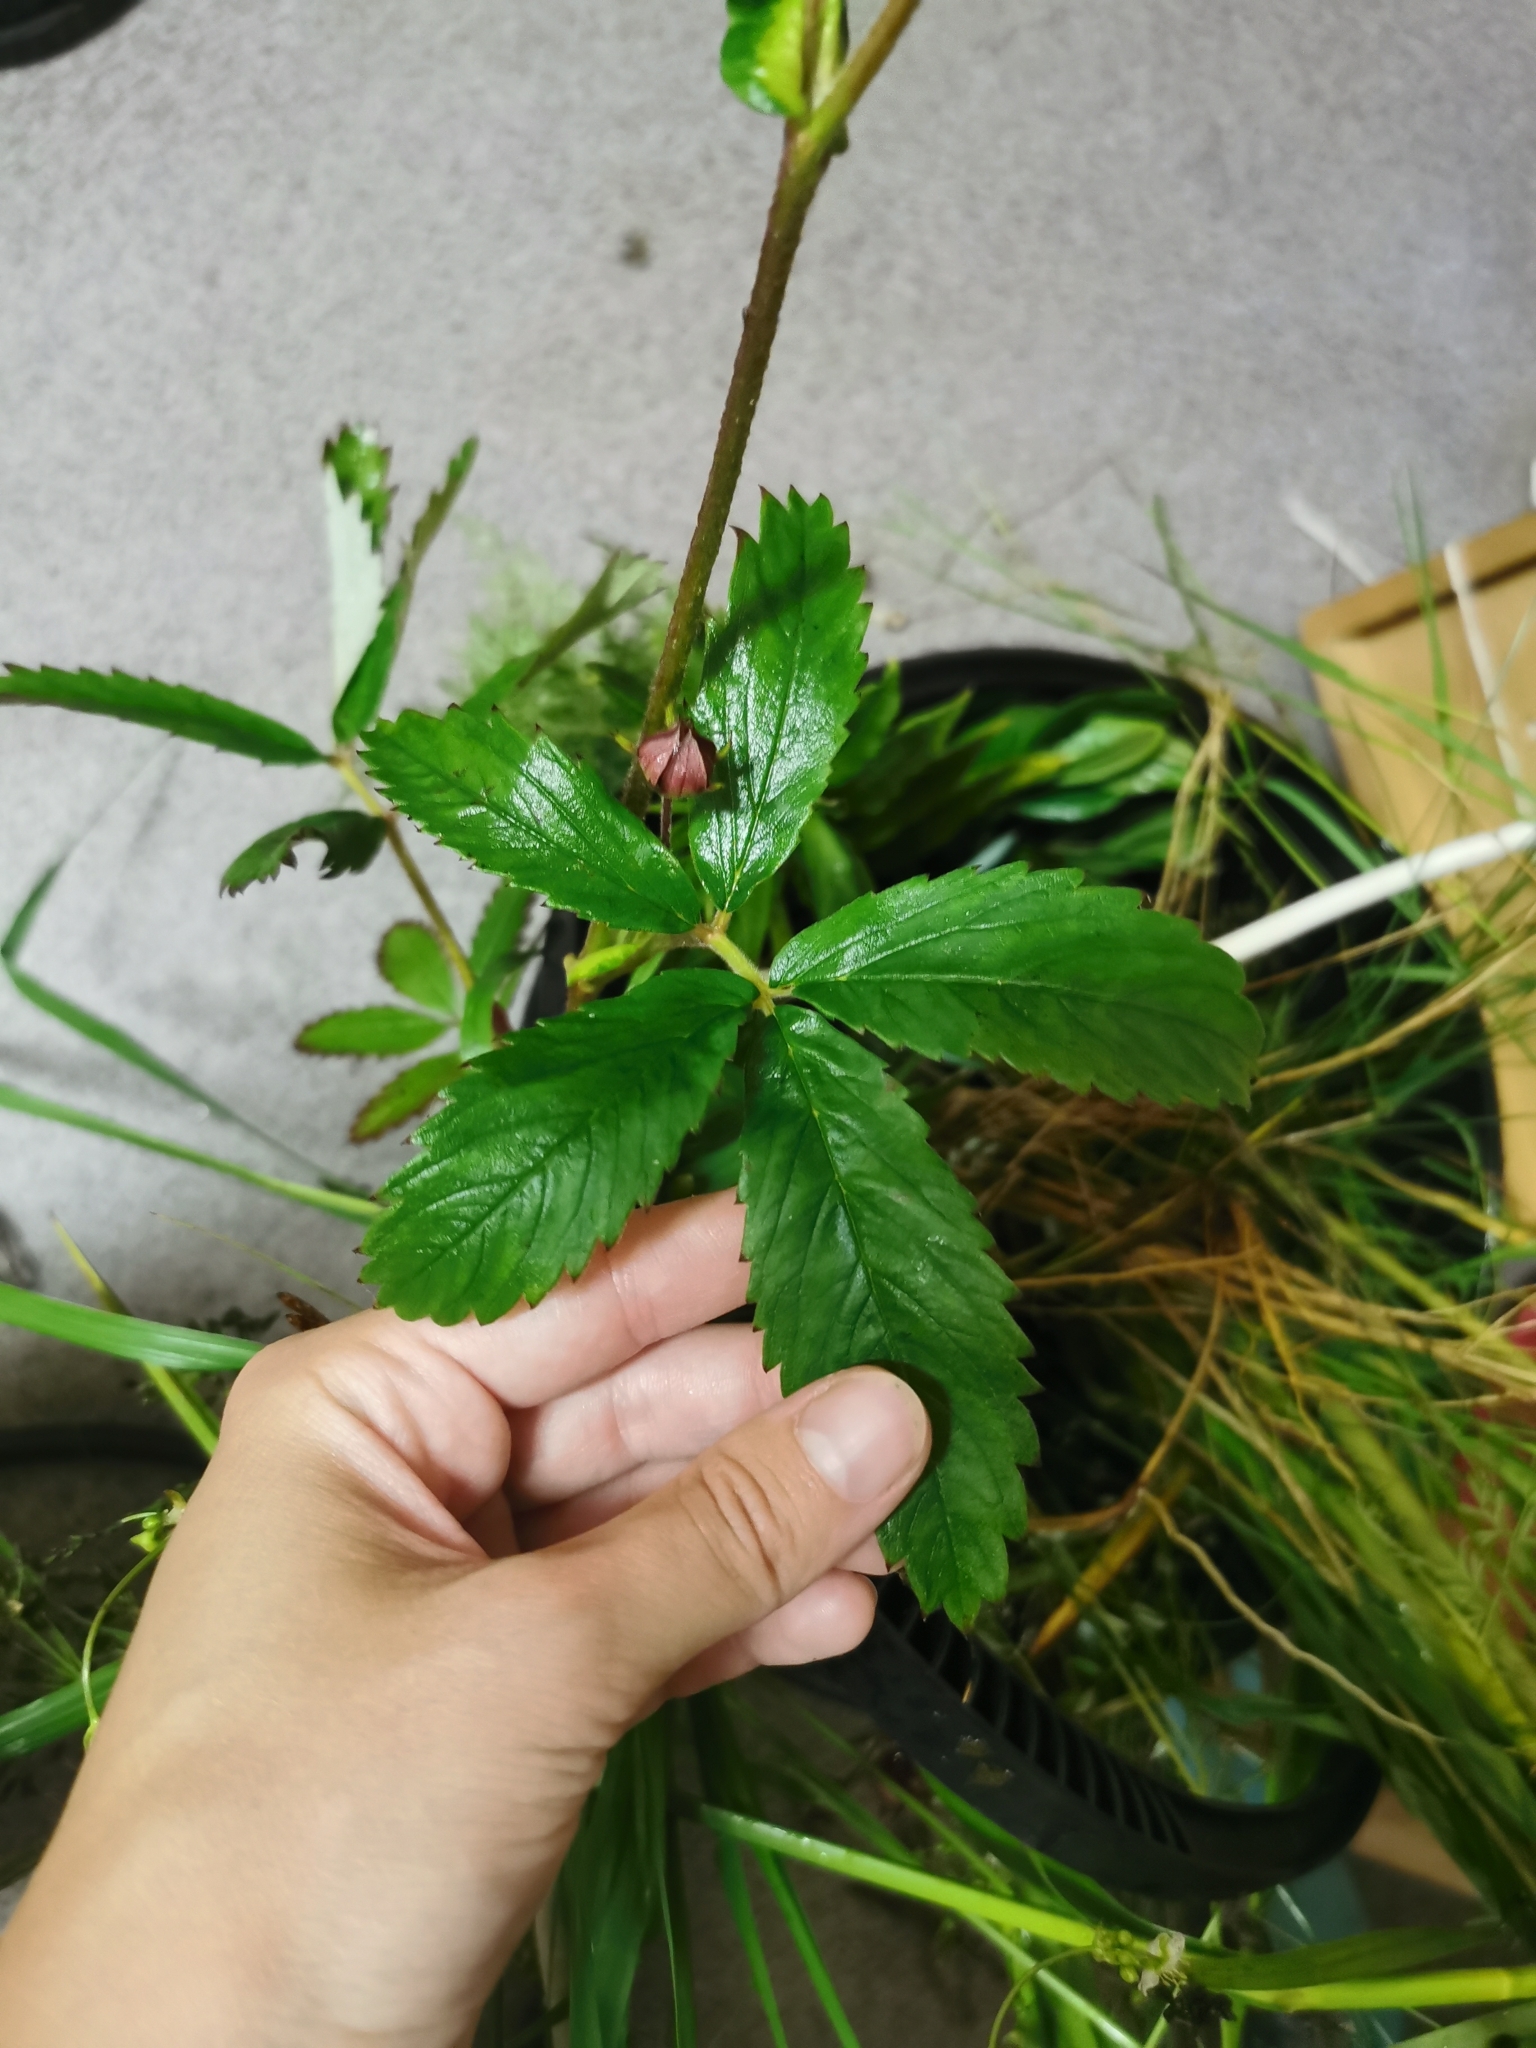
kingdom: Plantae
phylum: Tracheophyta
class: Magnoliopsida
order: Rosales
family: Rosaceae
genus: Comarum
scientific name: Comarum palustre
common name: Marsh cinquefoil
